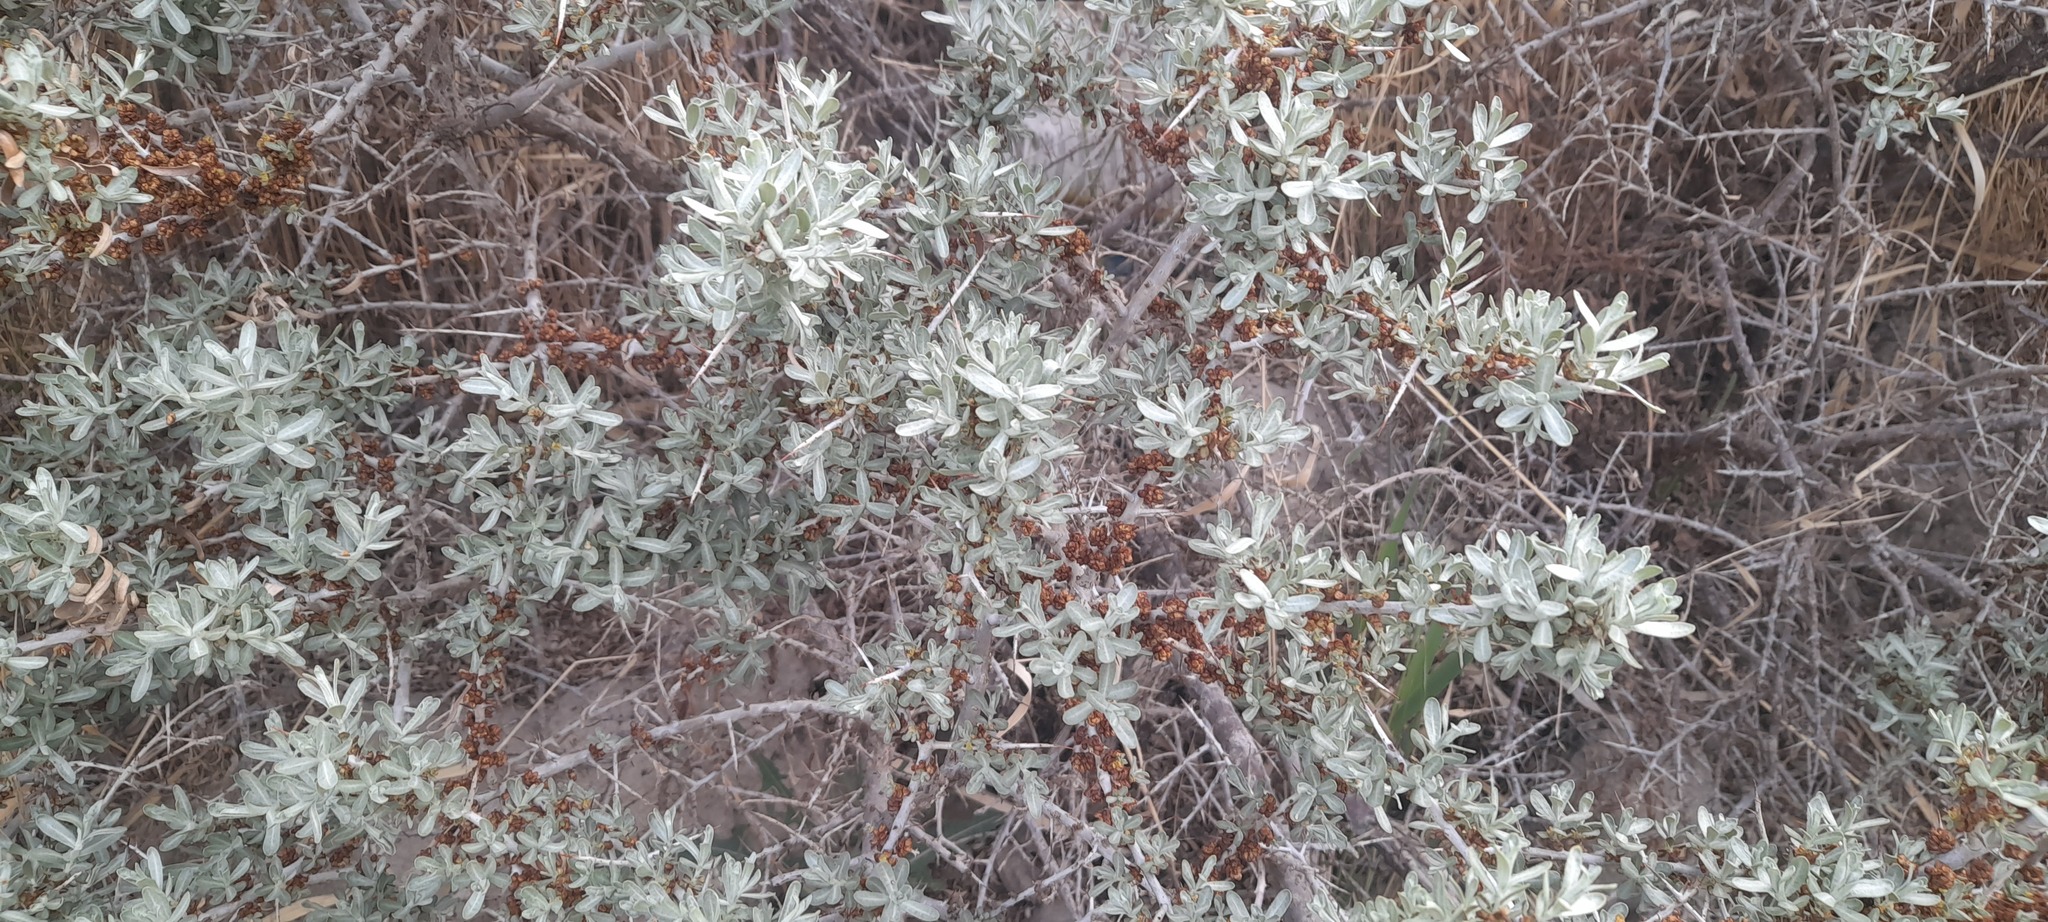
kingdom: Plantae
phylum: Tracheophyta
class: Magnoliopsida
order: Rosales
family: Elaeagnaceae
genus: Hippophae
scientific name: Hippophae rhamnoides
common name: Sea-buckthorn
